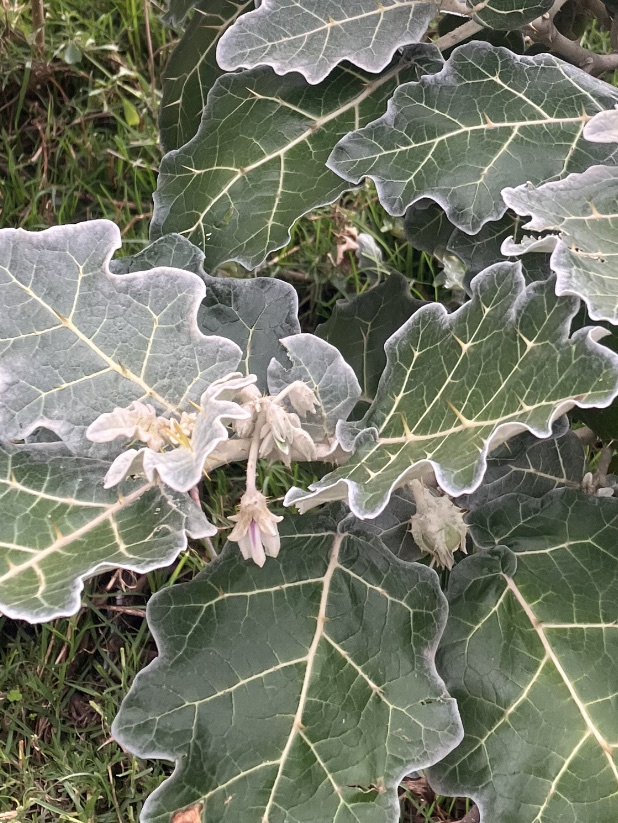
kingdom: Plantae
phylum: Tracheophyta
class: Magnoliopsida
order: Solanales
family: Solanaceae
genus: Solanum
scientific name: Solanum marginatum
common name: Purple african nightshade
